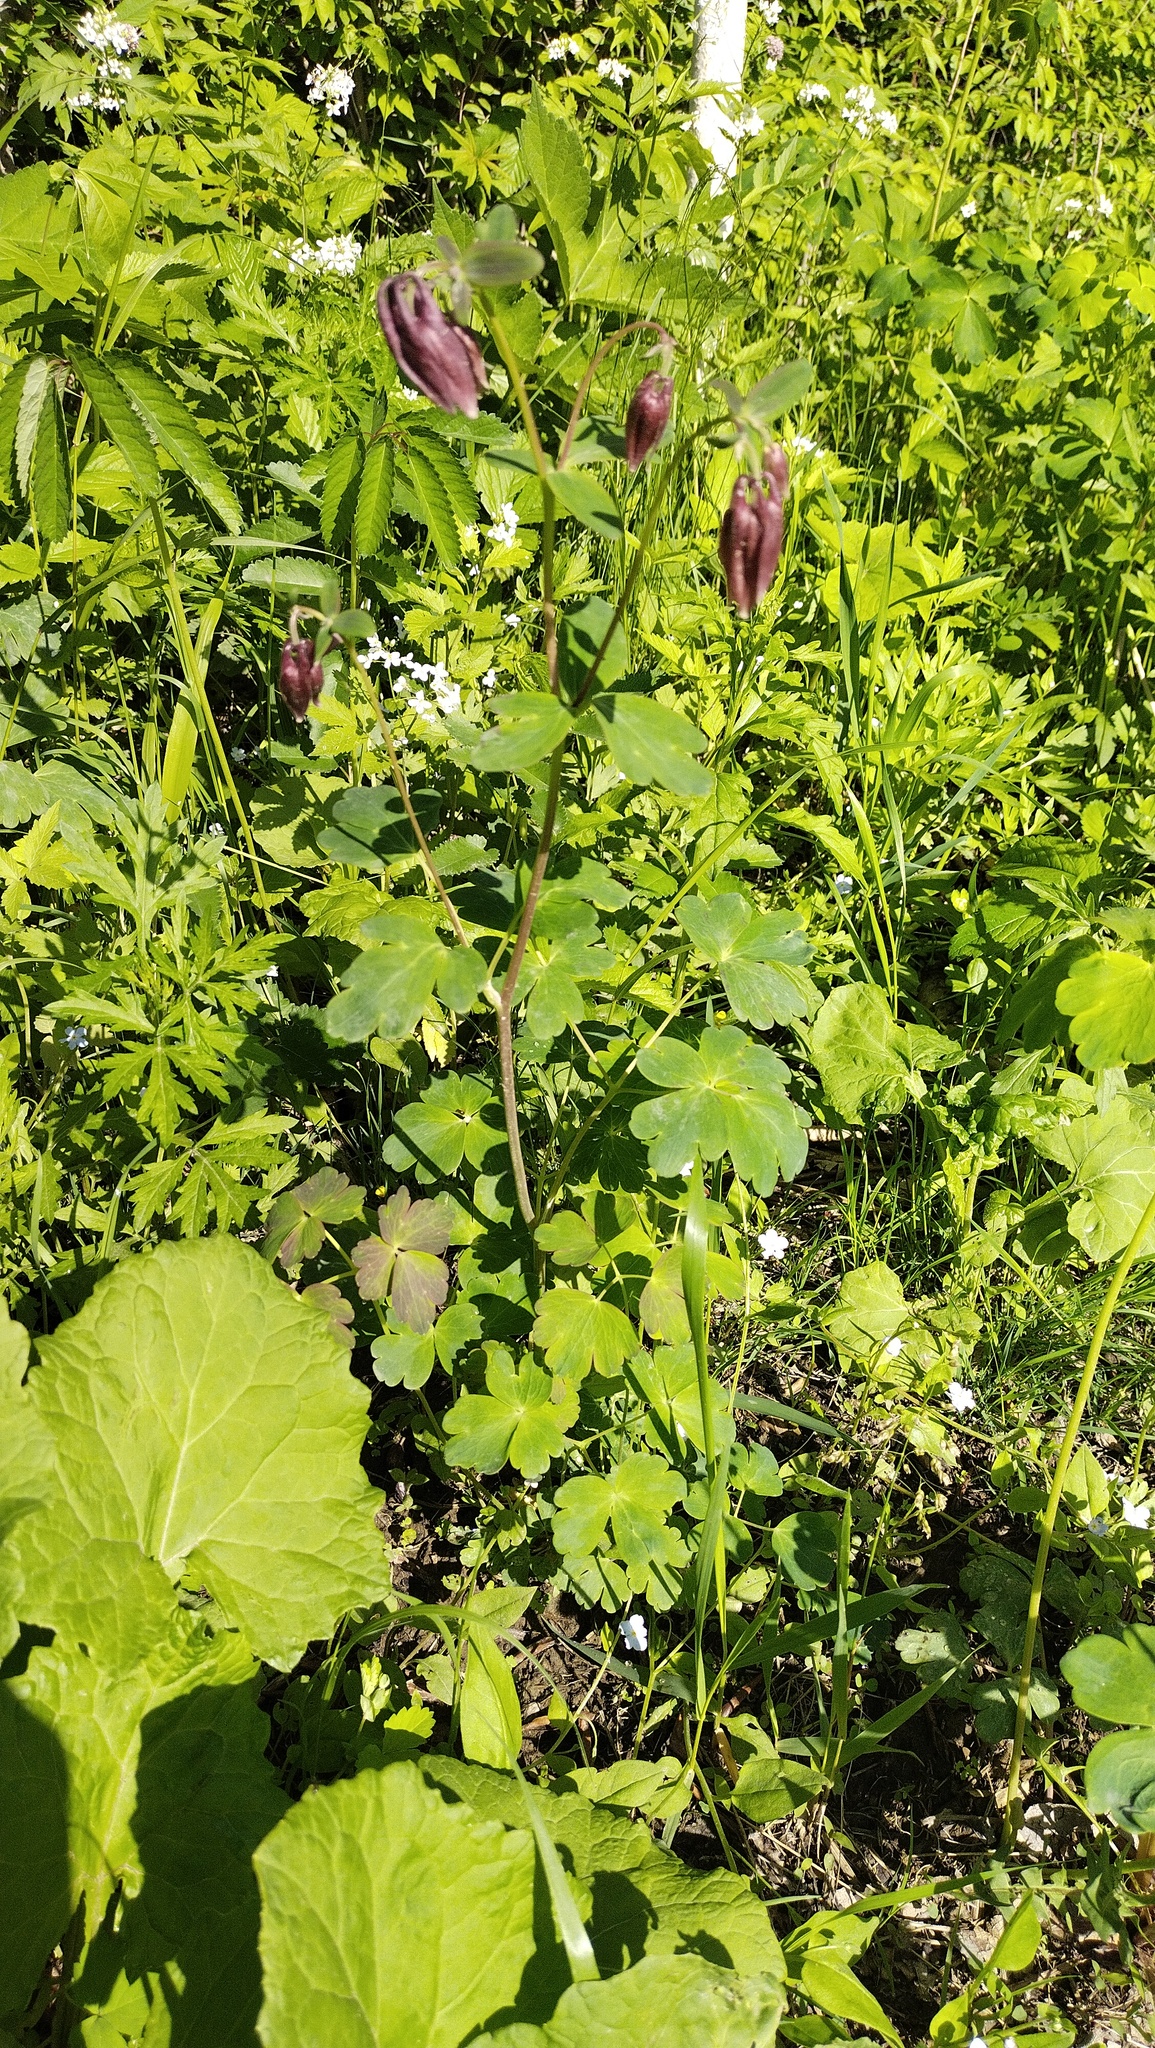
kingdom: Plantae
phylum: Tracheophyta
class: Magnoliopsida
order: Ranunculales
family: Ranunculaceae
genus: Aquilegia
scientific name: Aquilegia oxysepala
